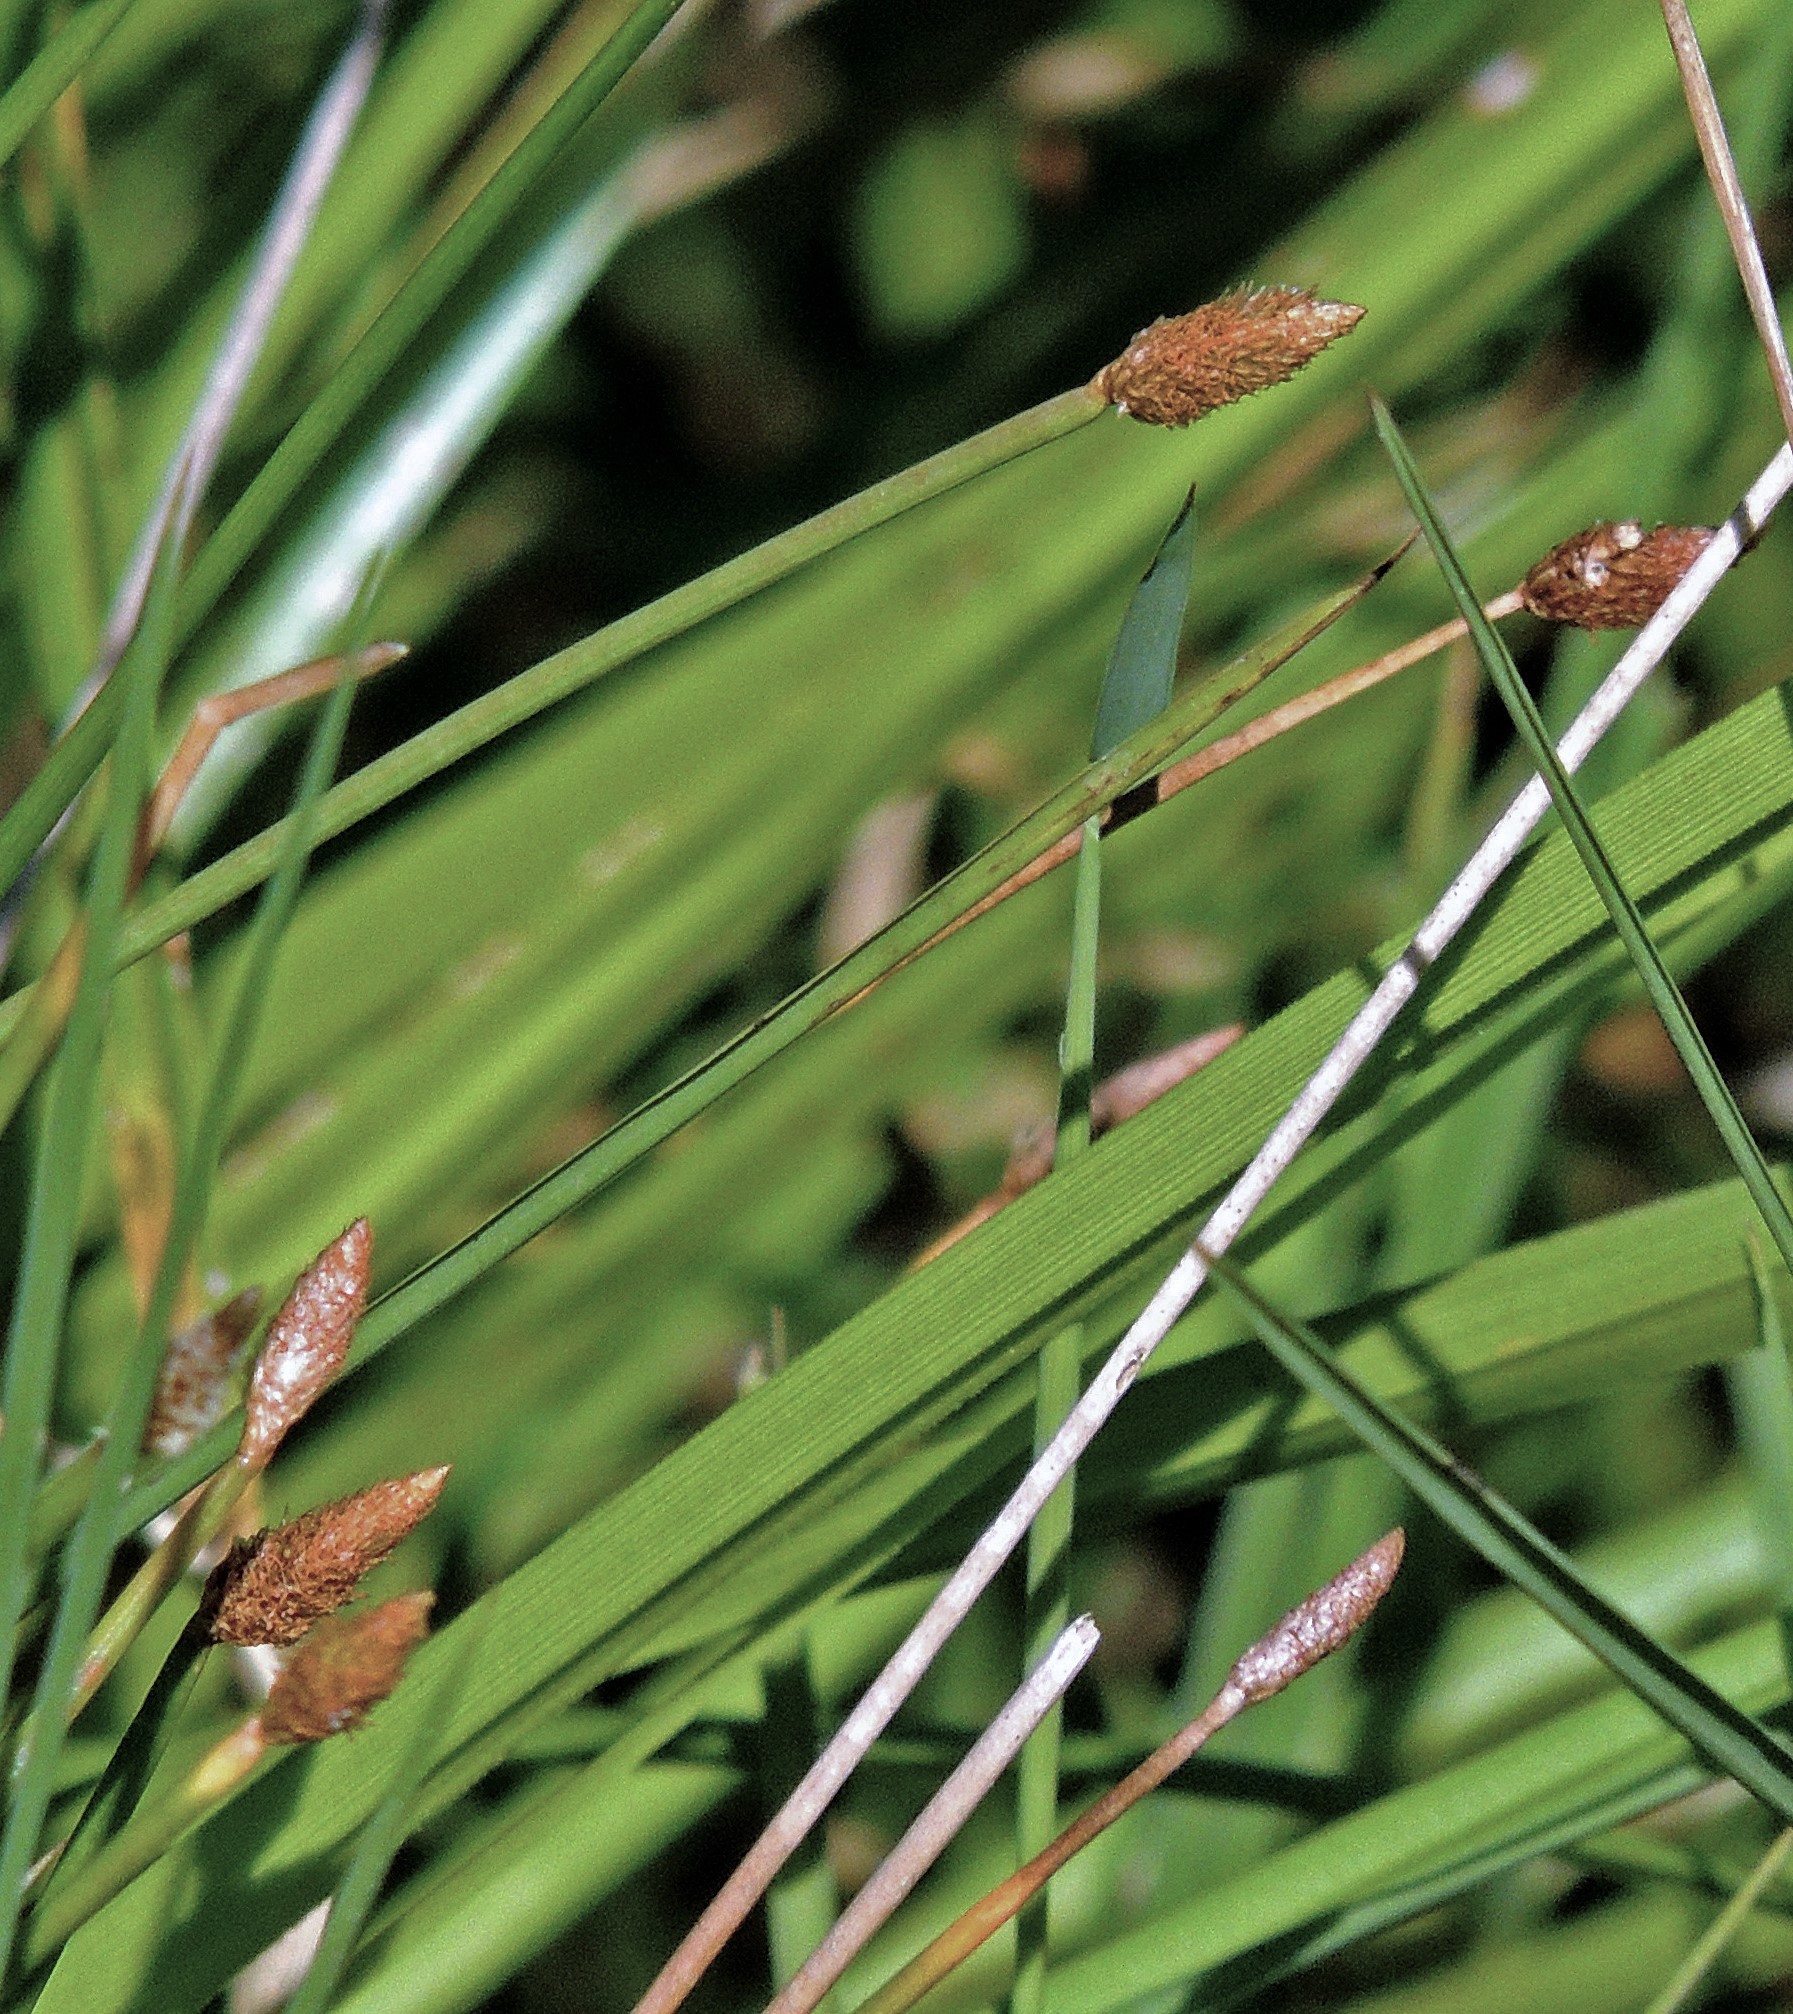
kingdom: Plantae
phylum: Tracheophyta
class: Liliopsida
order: Poales
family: Cyperaceae
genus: Eleocharis
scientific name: Eleocharis elegans
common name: Elegant spike-rush
